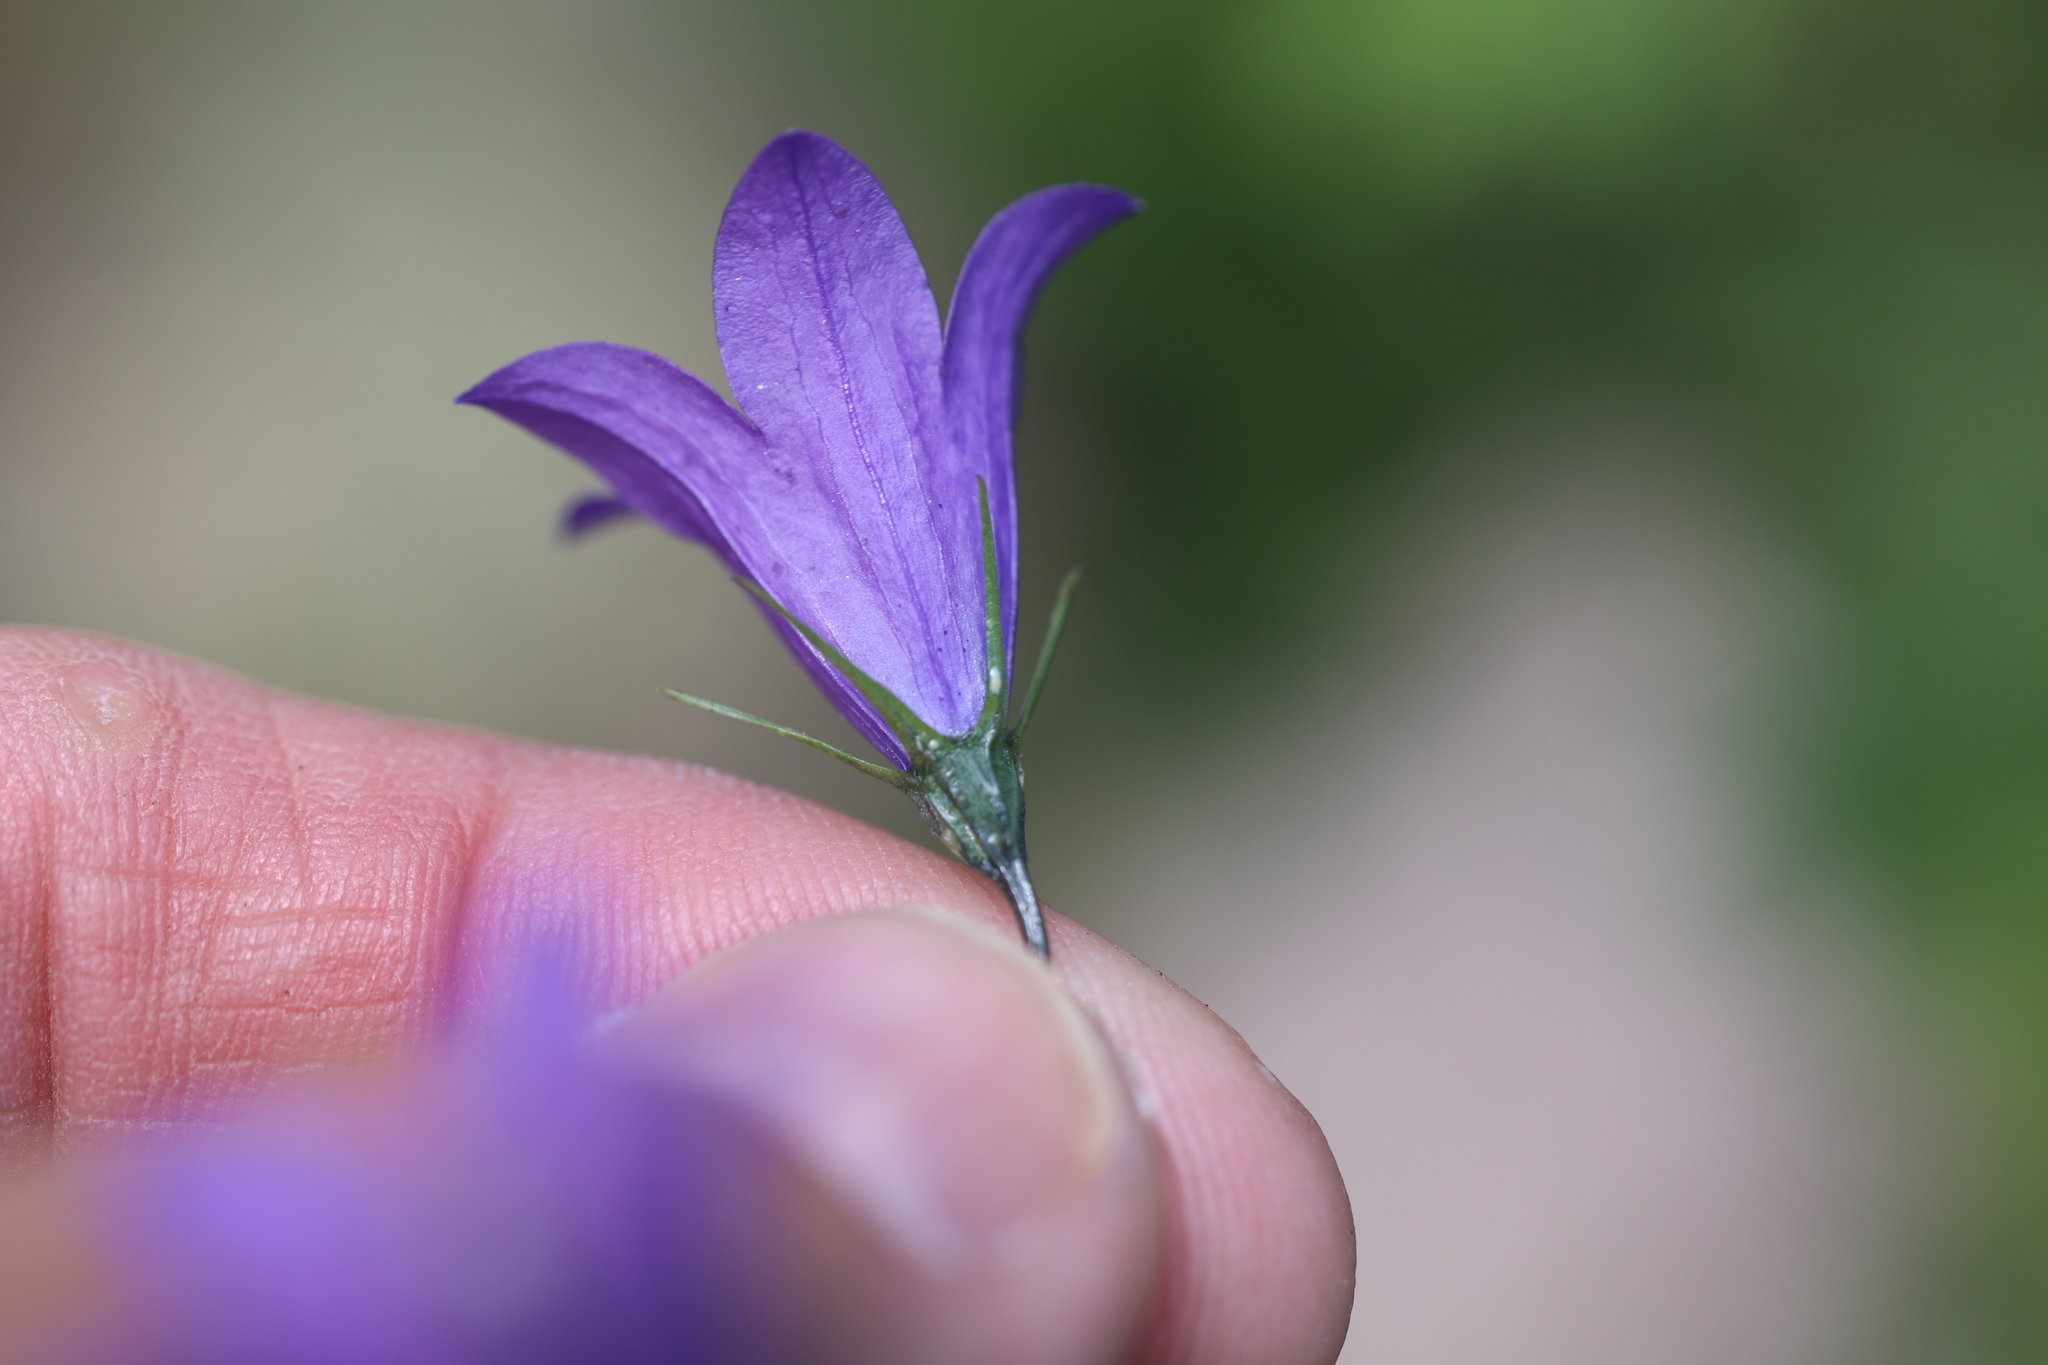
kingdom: Plantae
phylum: Tracheophyta
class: Magnoliopsida
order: Asterales
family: Campanulaceae
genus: Campanula
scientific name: Campanula petiolata
